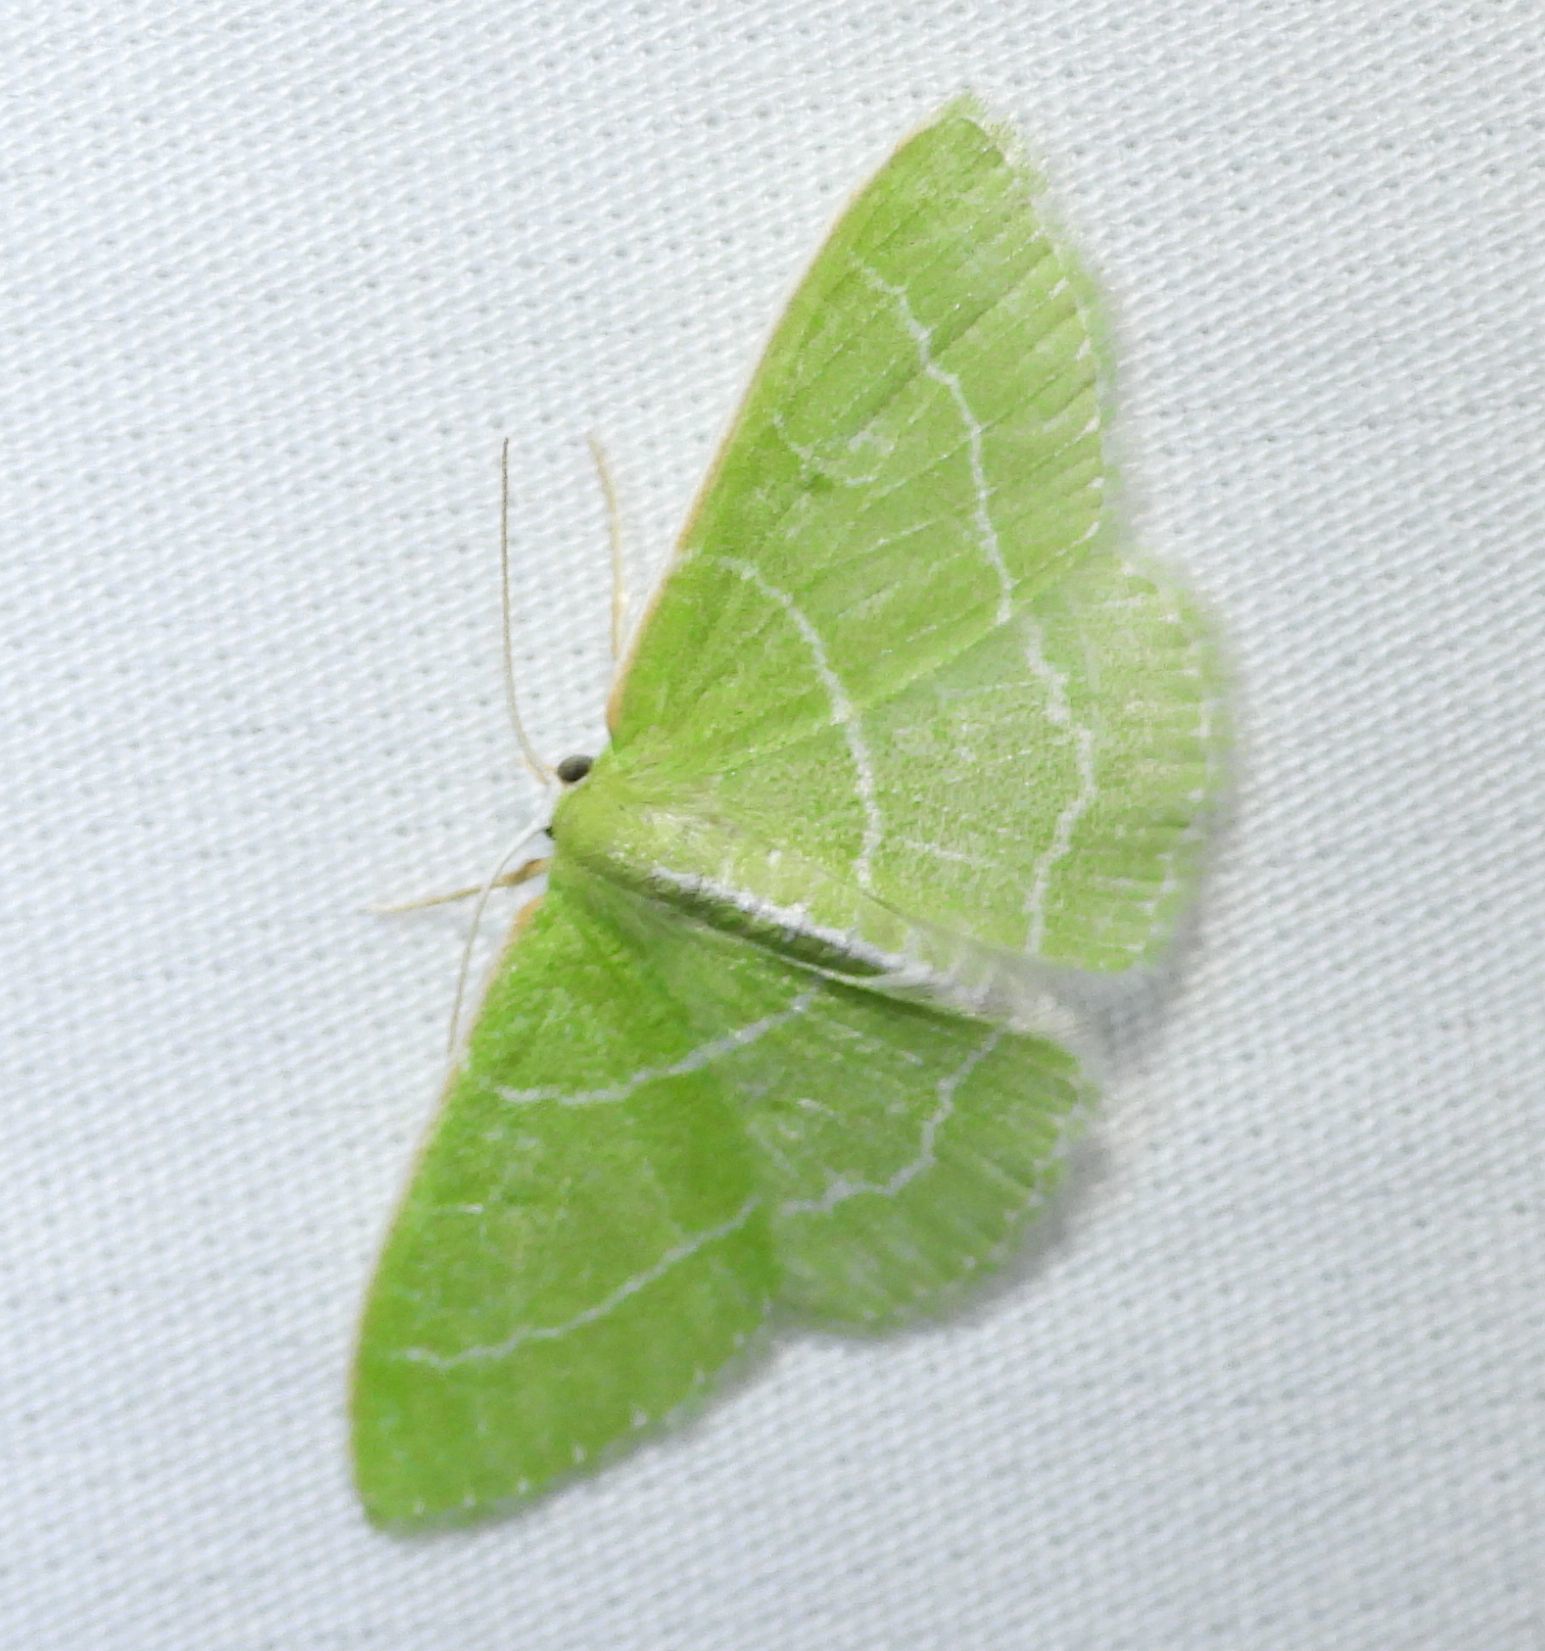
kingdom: Animalia
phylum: Arthropoda
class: Insecta
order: Lepidoptera
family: Geometridae
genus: Synchlora
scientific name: Synchlora aerata
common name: Wavy-lined emerald
